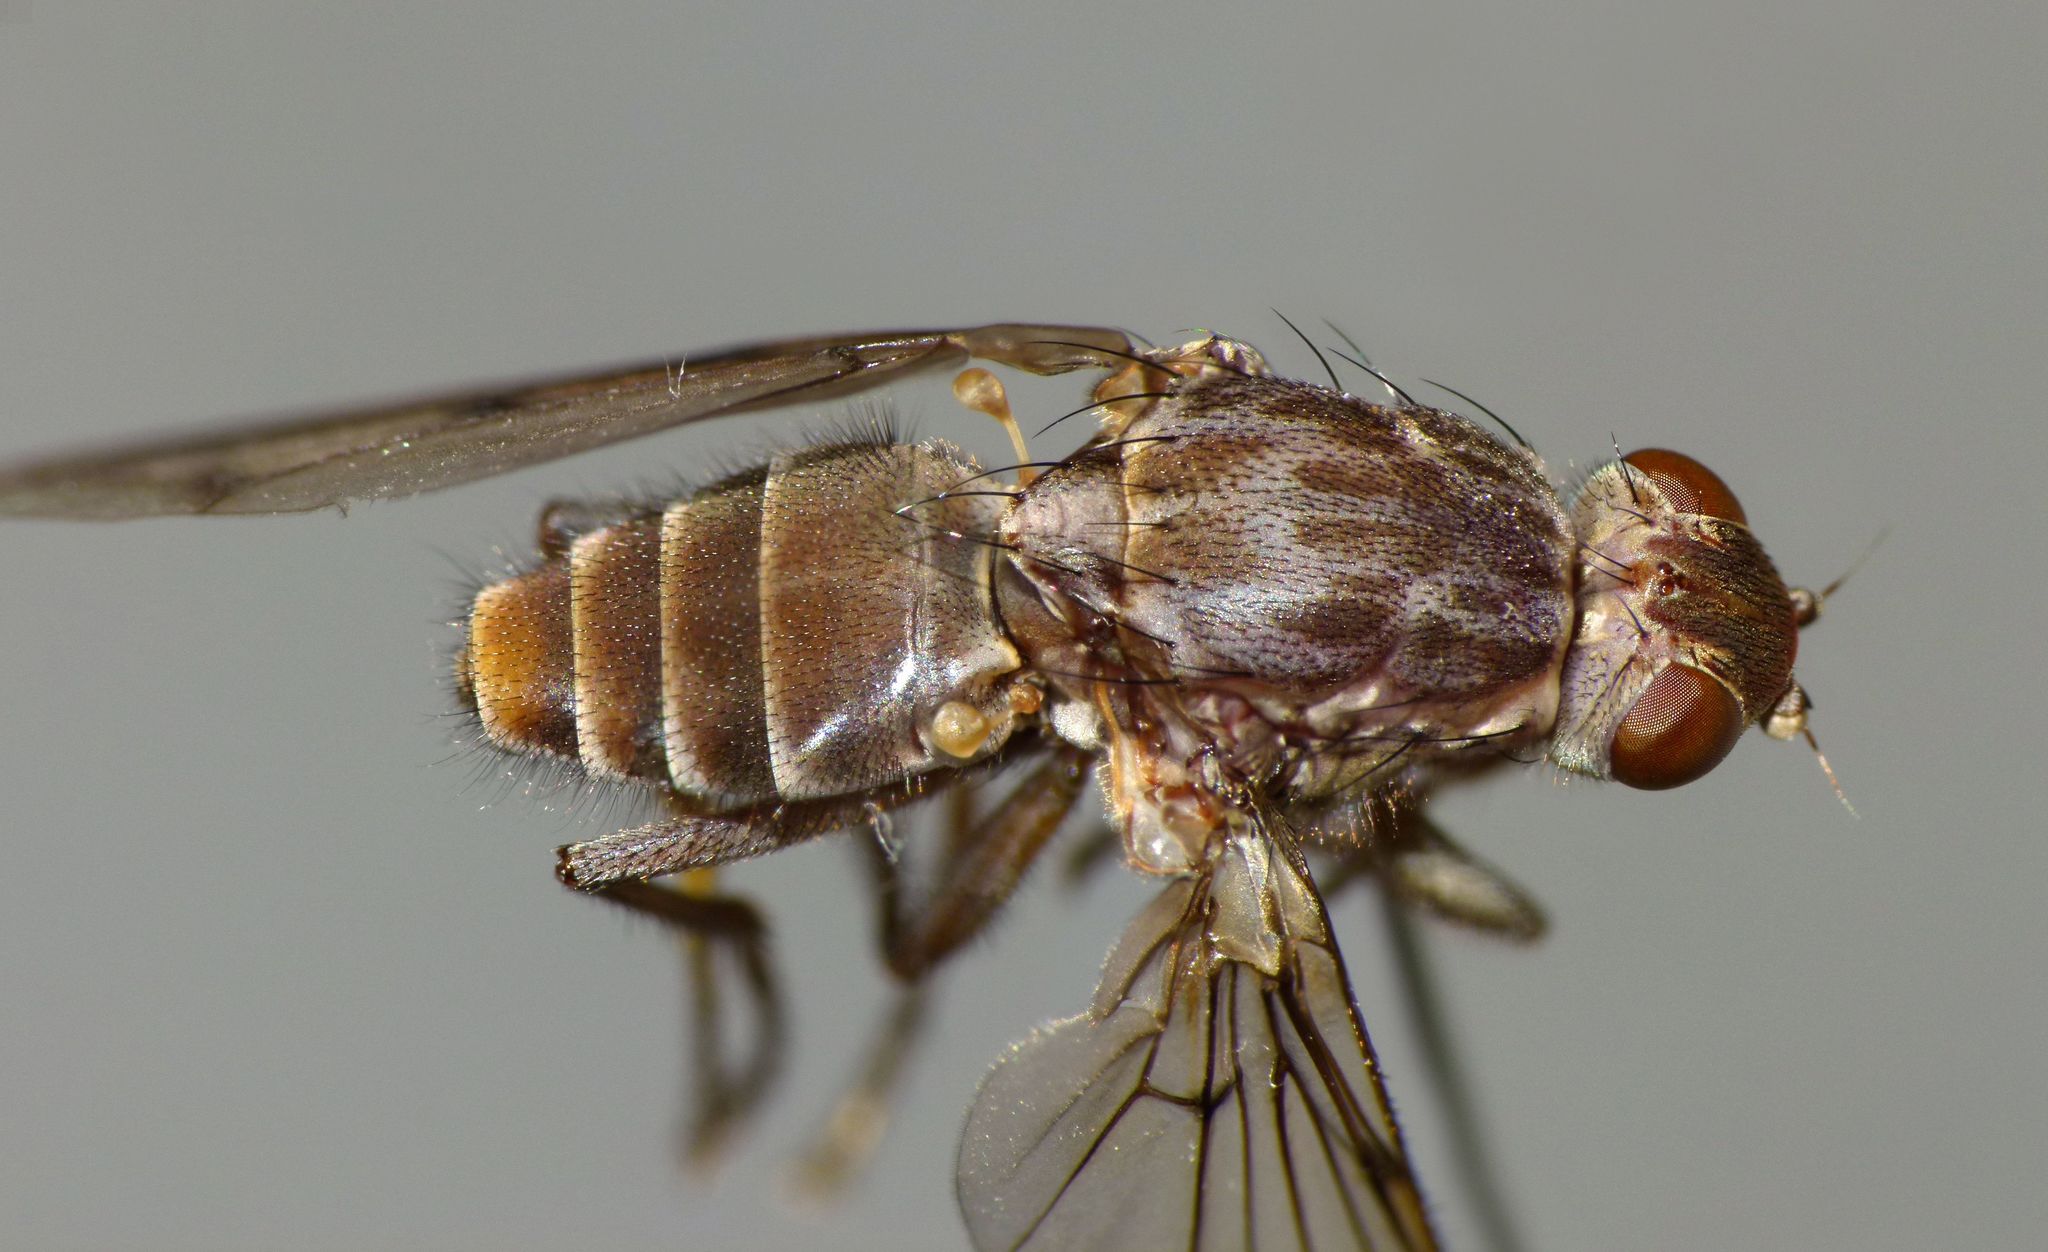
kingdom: Animalia
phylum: Arthropoda
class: Insecta
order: Diptera
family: Helcomyzidae
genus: Maorimyia
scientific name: Maorimyia bipunctata
